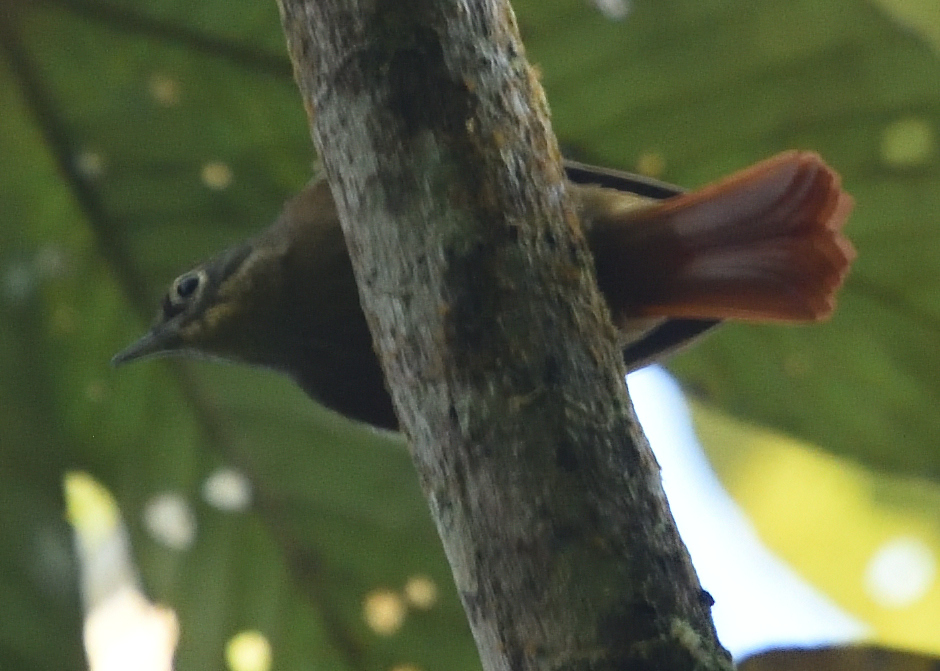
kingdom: Animalia
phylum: Chordata
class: Aves
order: Passeriformes
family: Furnariidae
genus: Anabacerthia
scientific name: Anabacerthia striaticollis
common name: Montane foliage-gleaner
